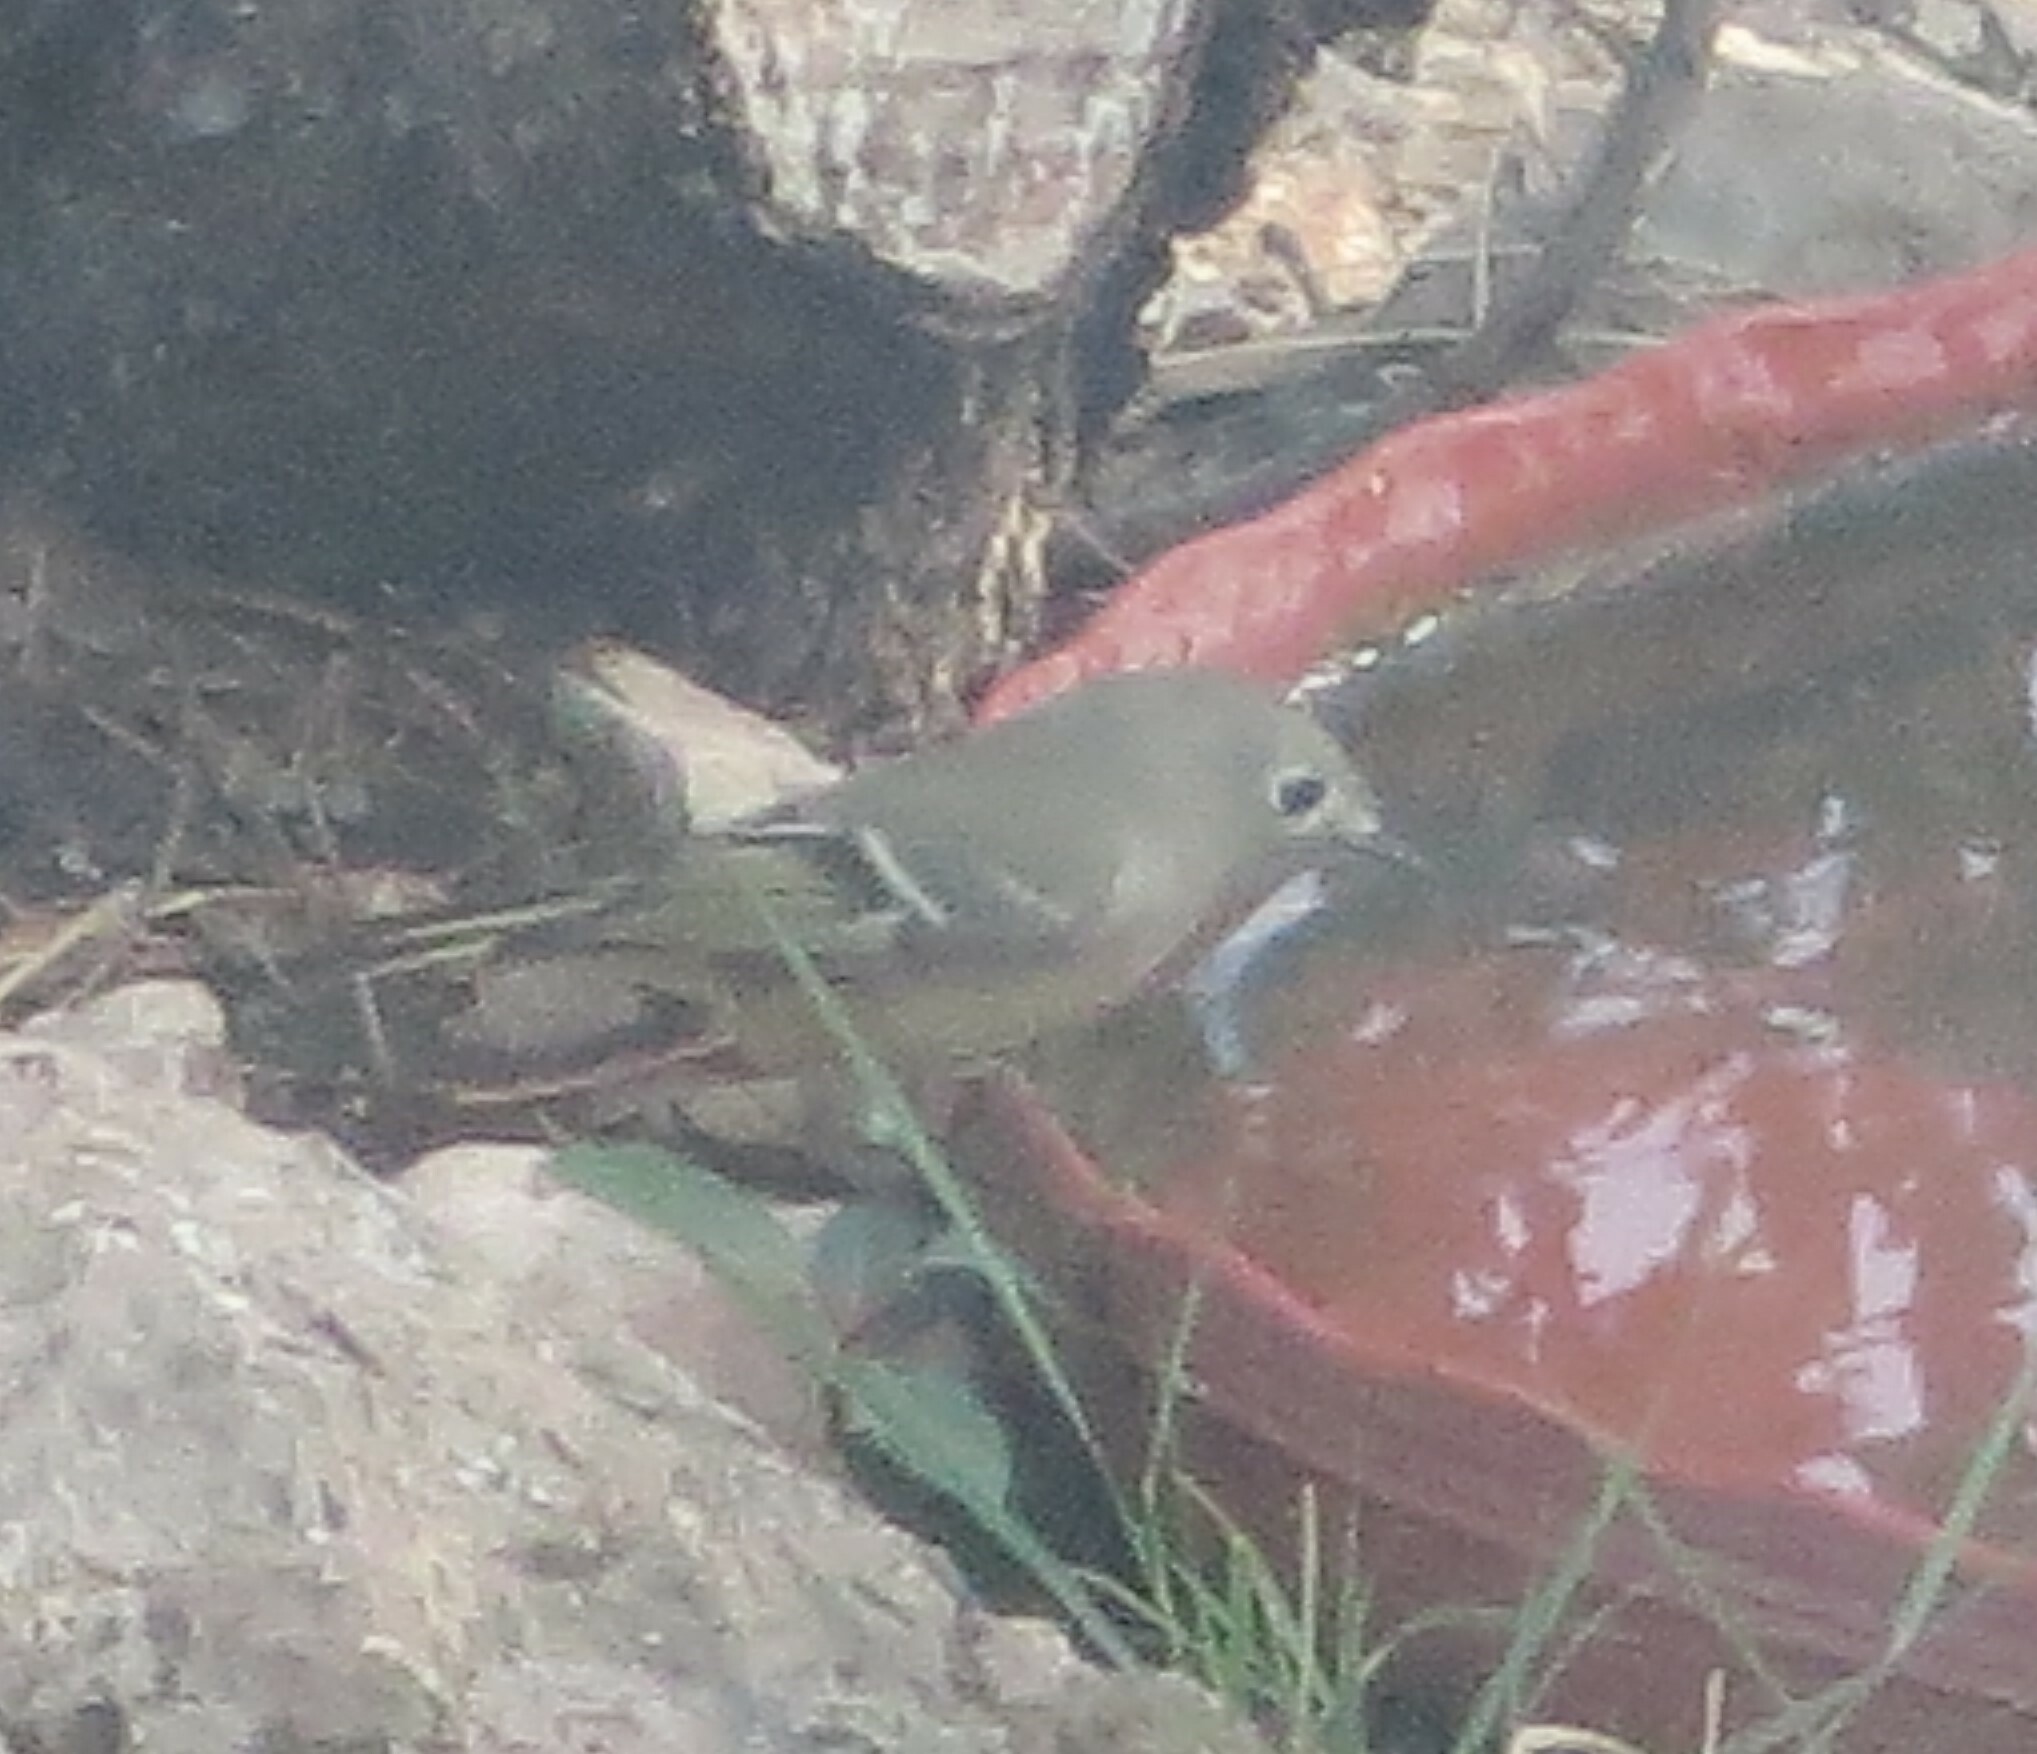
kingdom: Animalia
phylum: Chordata
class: Aves
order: Passeriformes
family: Regulidae
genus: Regulus
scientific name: Regulus calendula
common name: Ruby-crowned kinglet
